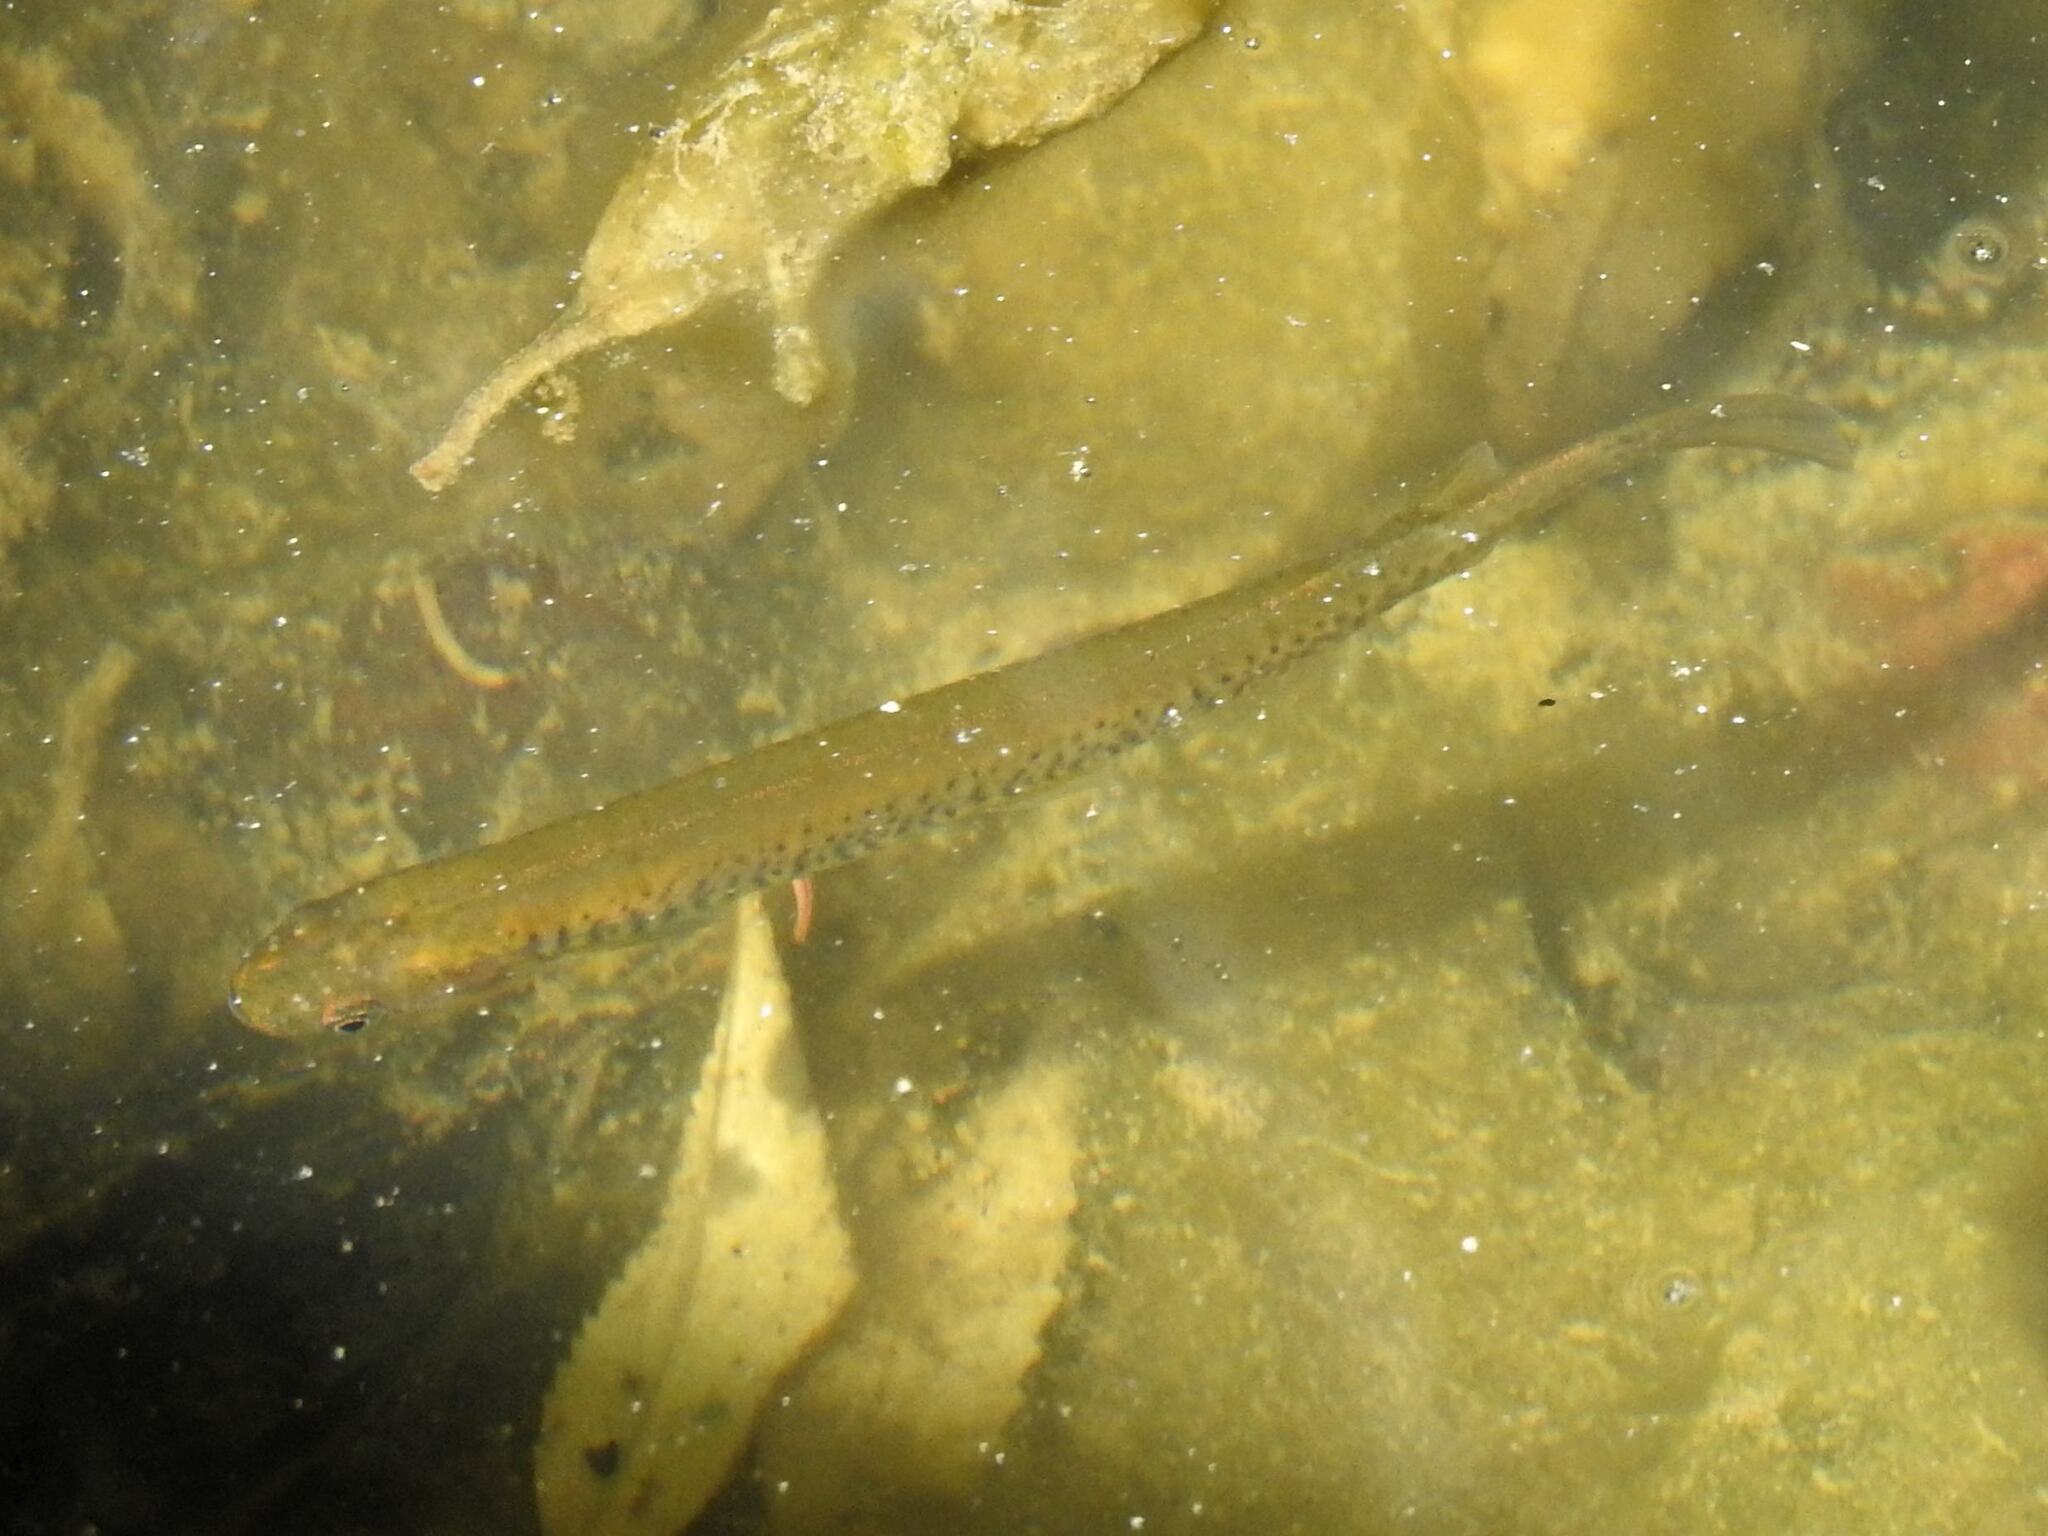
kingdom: Animalia
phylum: Chordata
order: Osmeriformes
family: Galaxiidae
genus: Galaxias
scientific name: Galaxias maculatus
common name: Common galaxias
